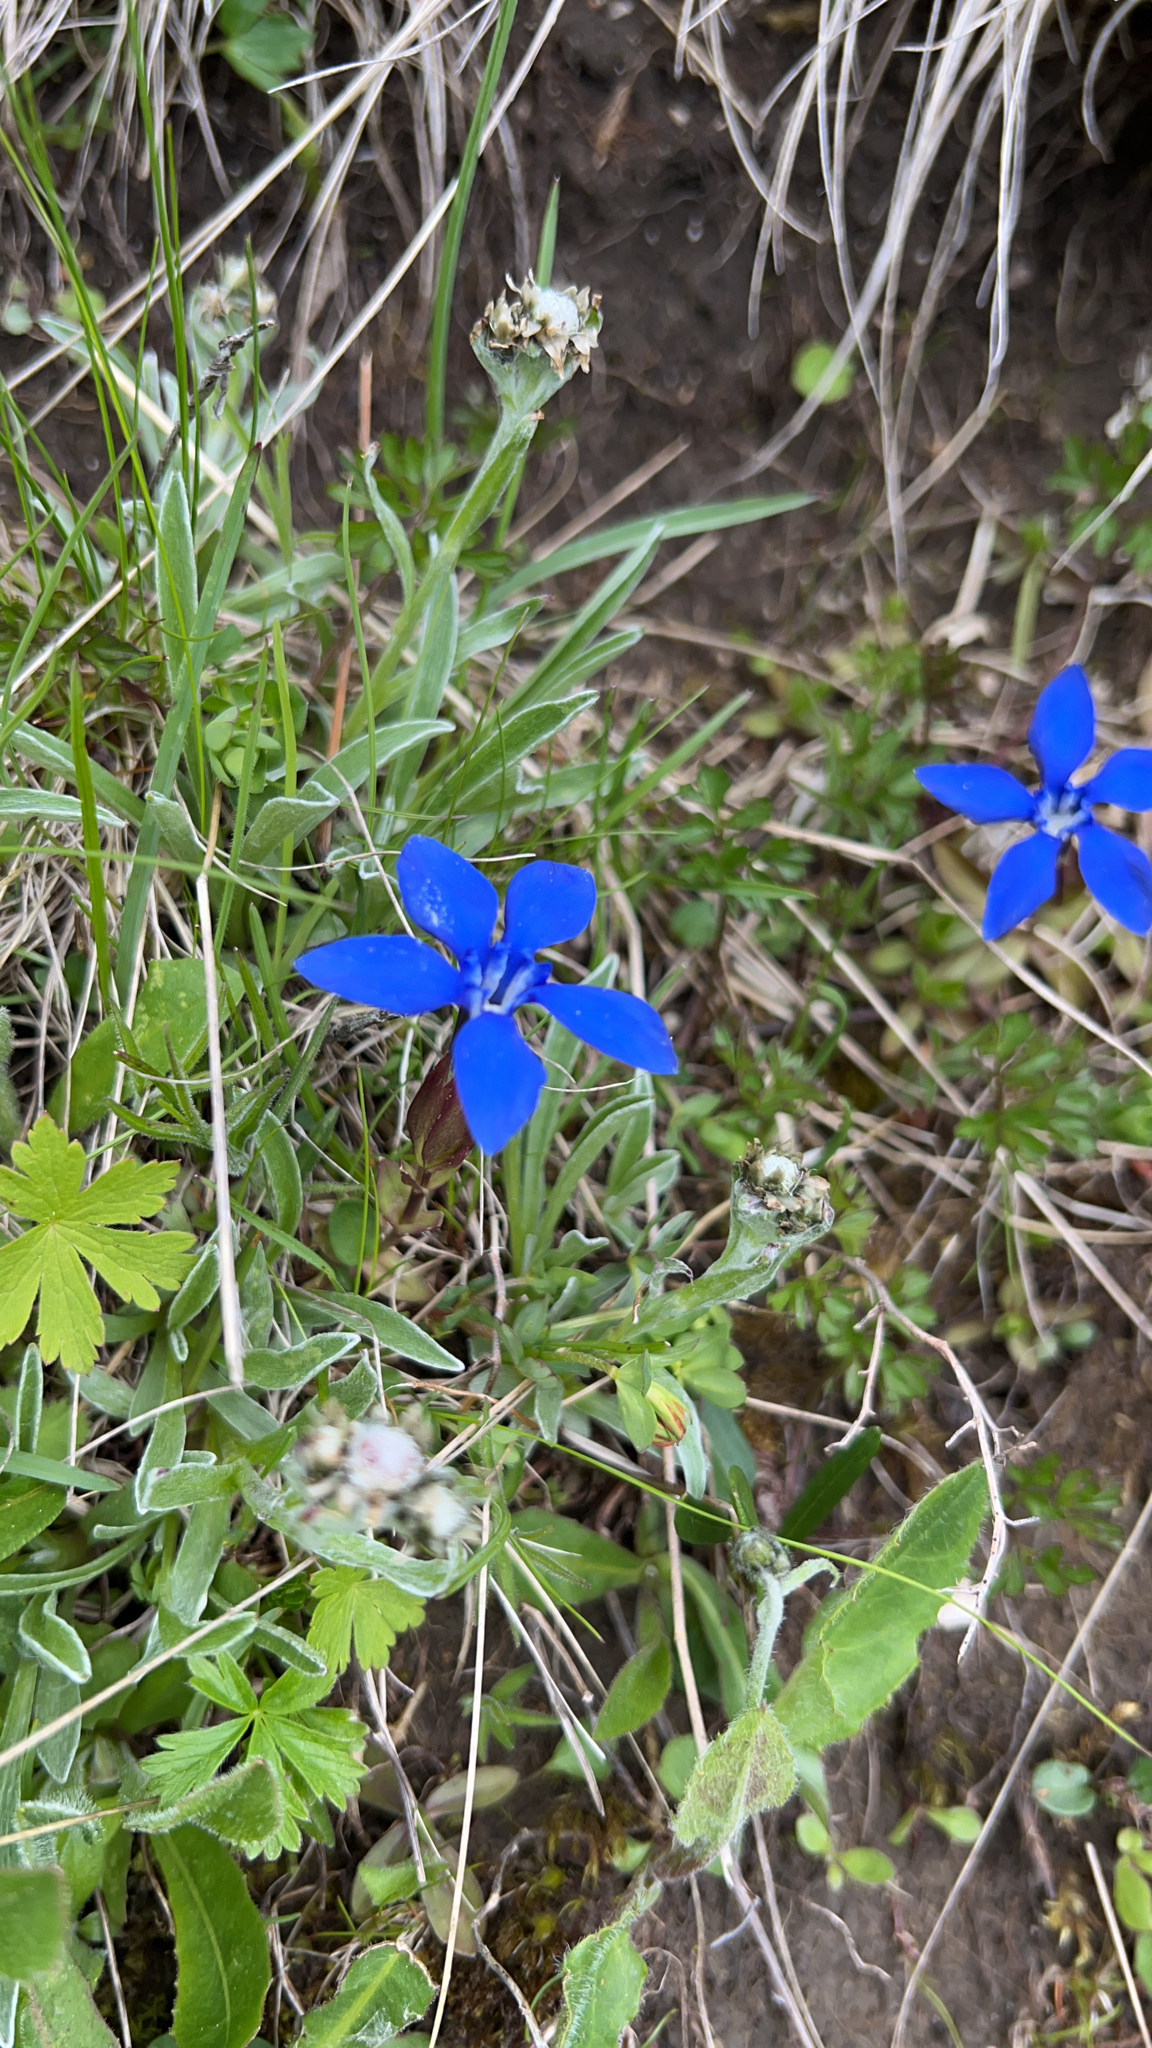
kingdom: Plantae
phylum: Tracheophyta
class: Magnoliopsida
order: Gentianales
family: Gentianaceae
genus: Gentiana
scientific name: Gentiana verna
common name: Spring gentian
